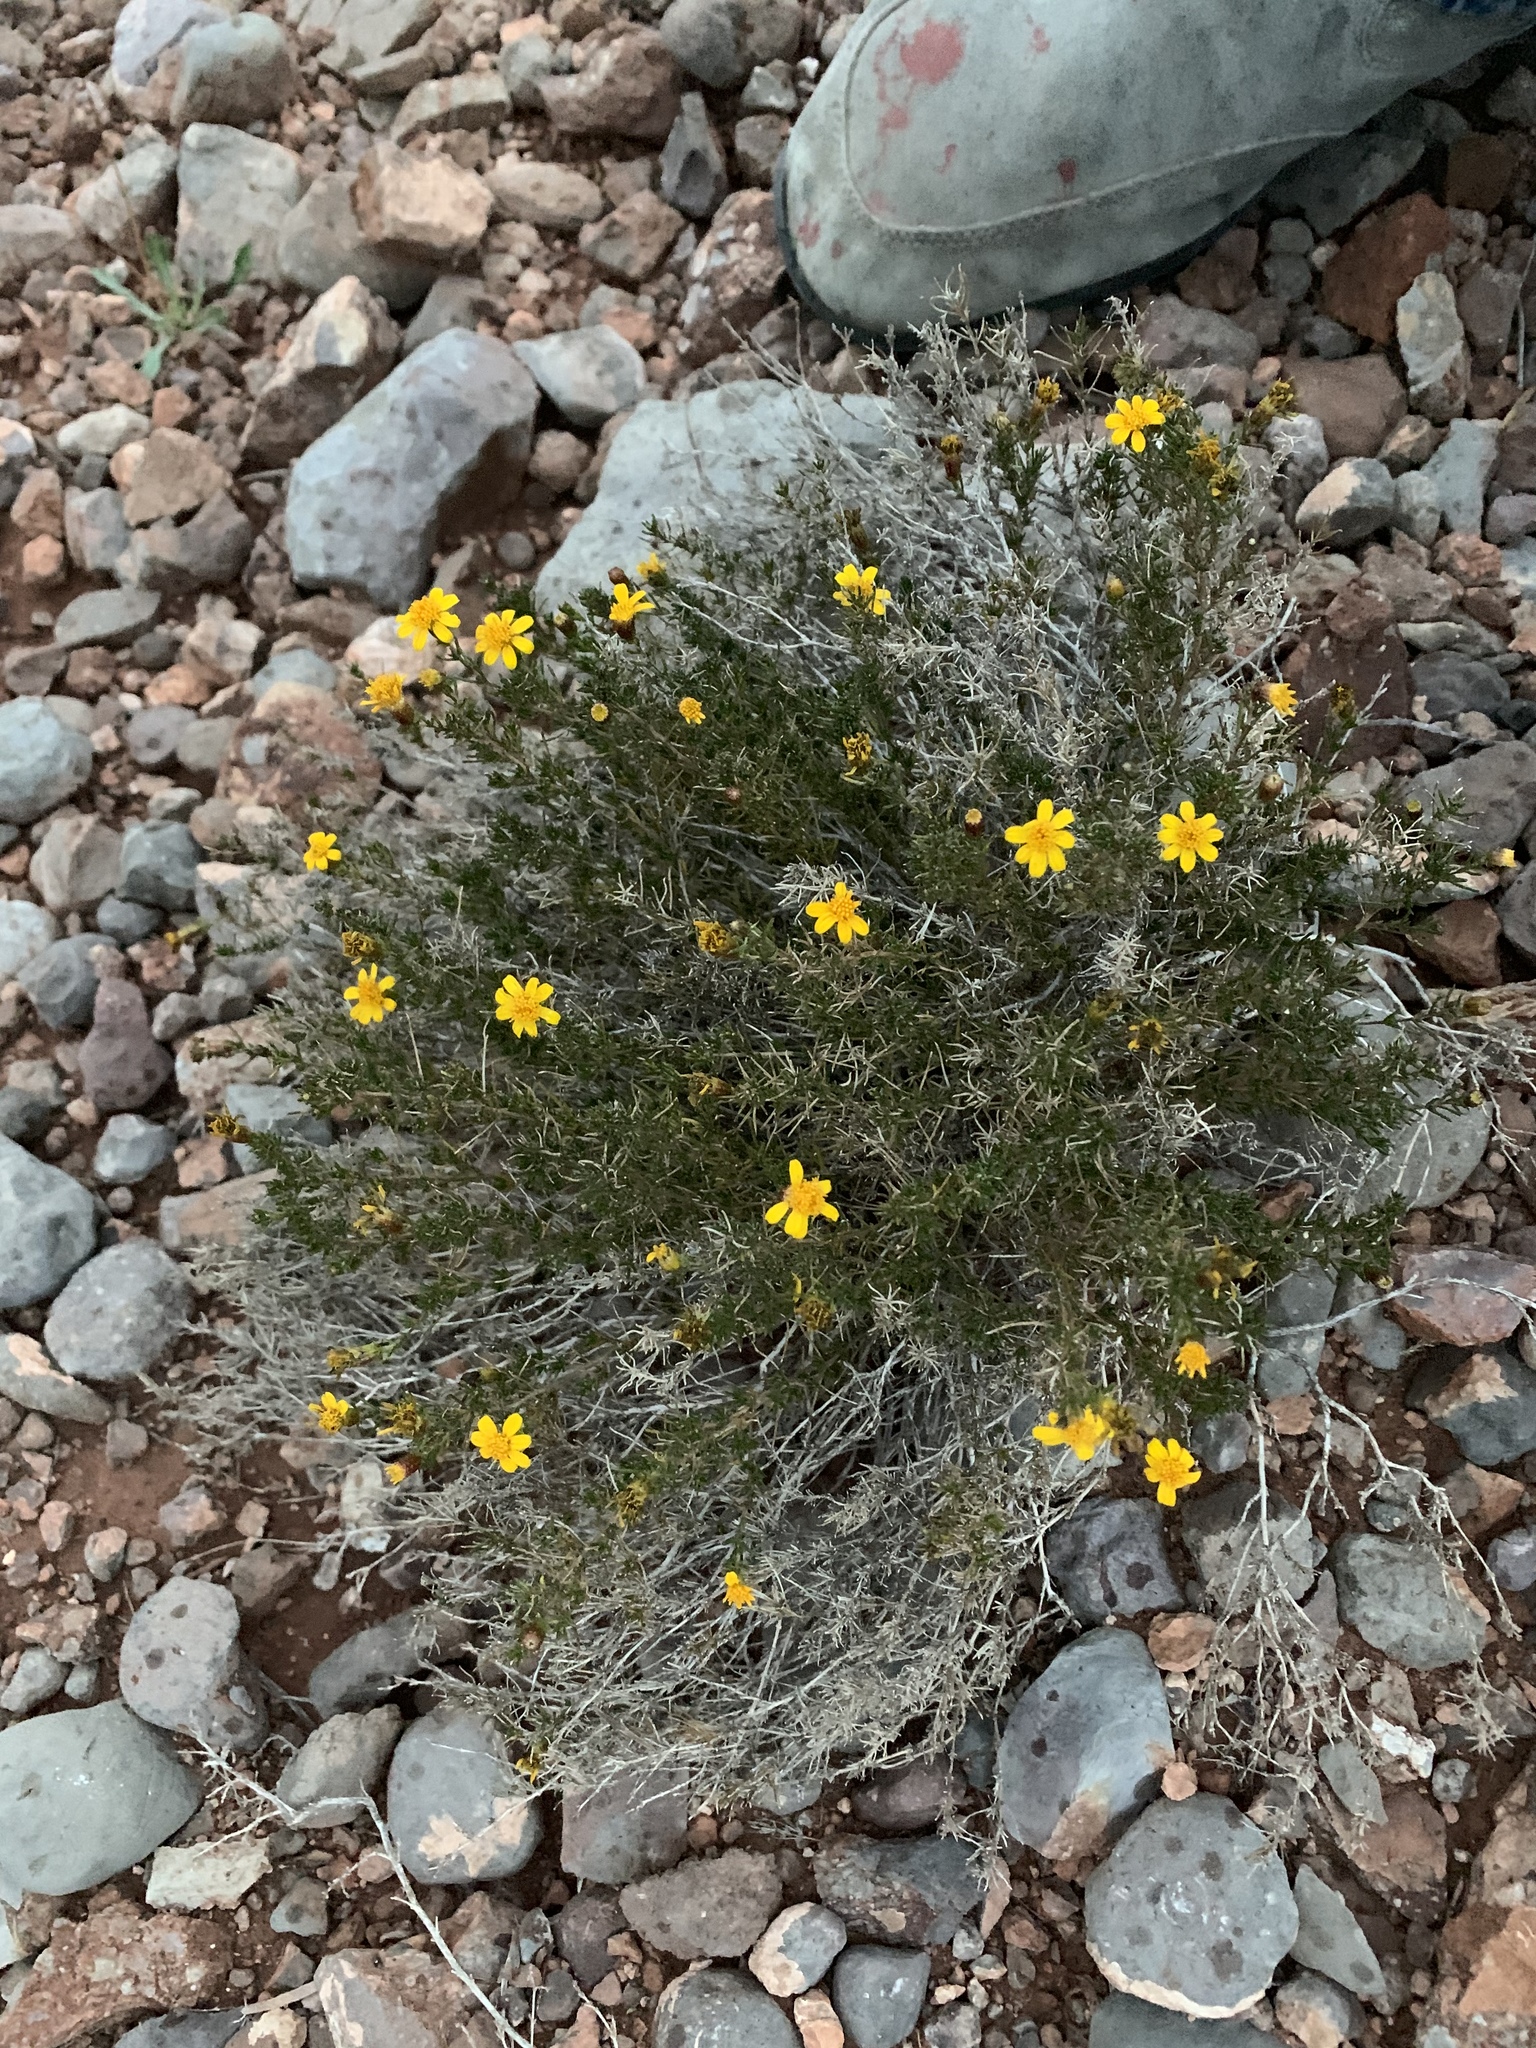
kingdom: Plantae
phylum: Tracheophyta
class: Magnoliopsida
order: Asterales
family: Asteraceae
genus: Thymophylla
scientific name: Thymophylla acerosa
